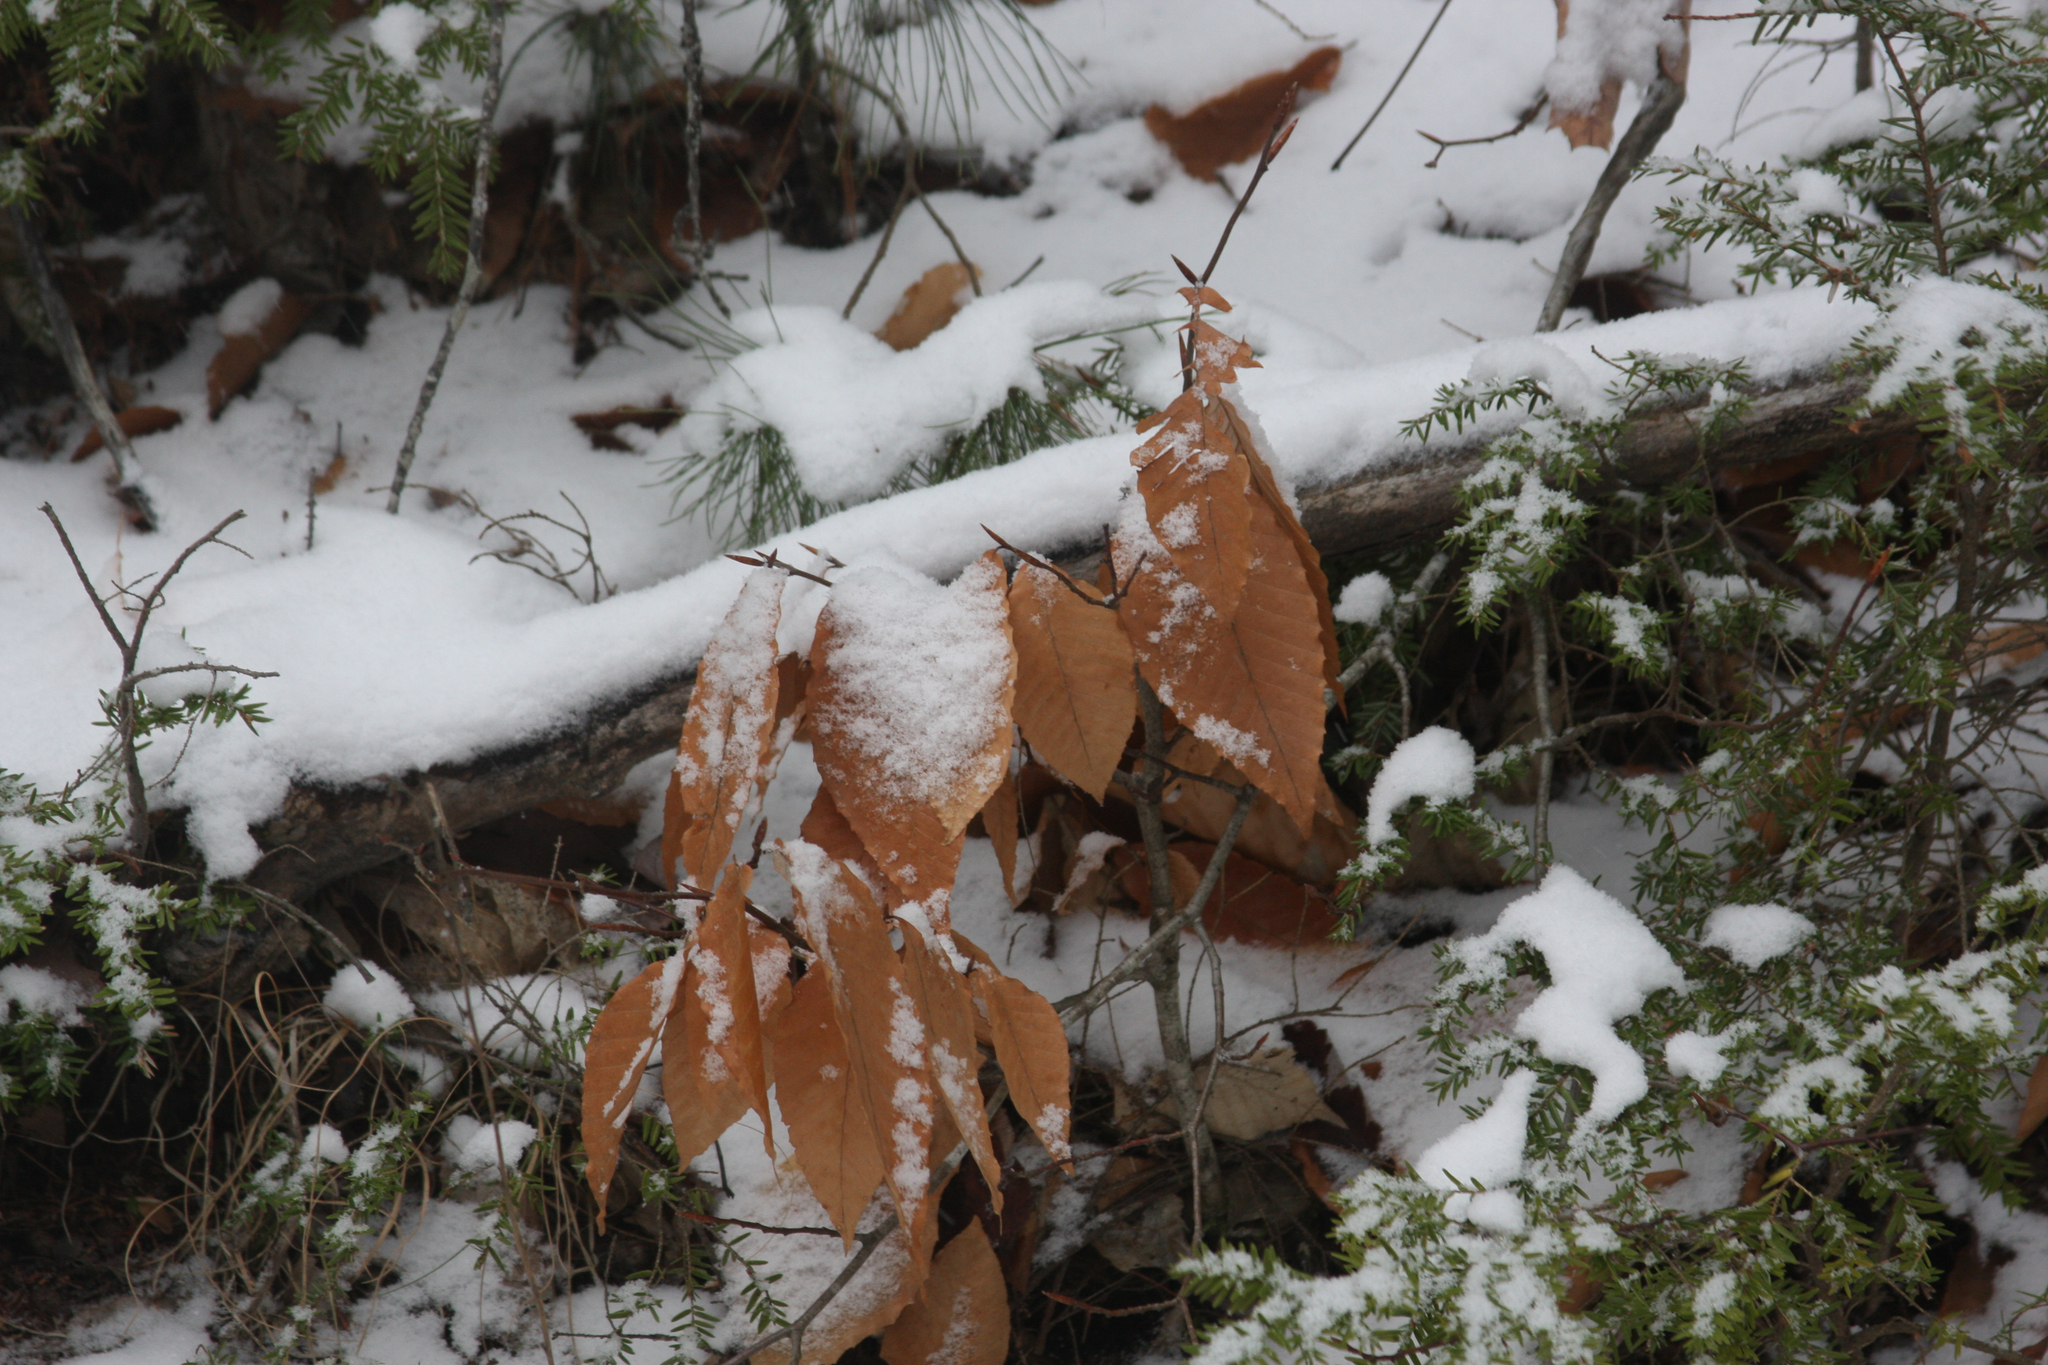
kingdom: Plantae
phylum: Tracheophyta
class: Magnoliopsida
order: Fagales
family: Fagaceae
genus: Fagus
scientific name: Fagus grandifolia
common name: American beech
